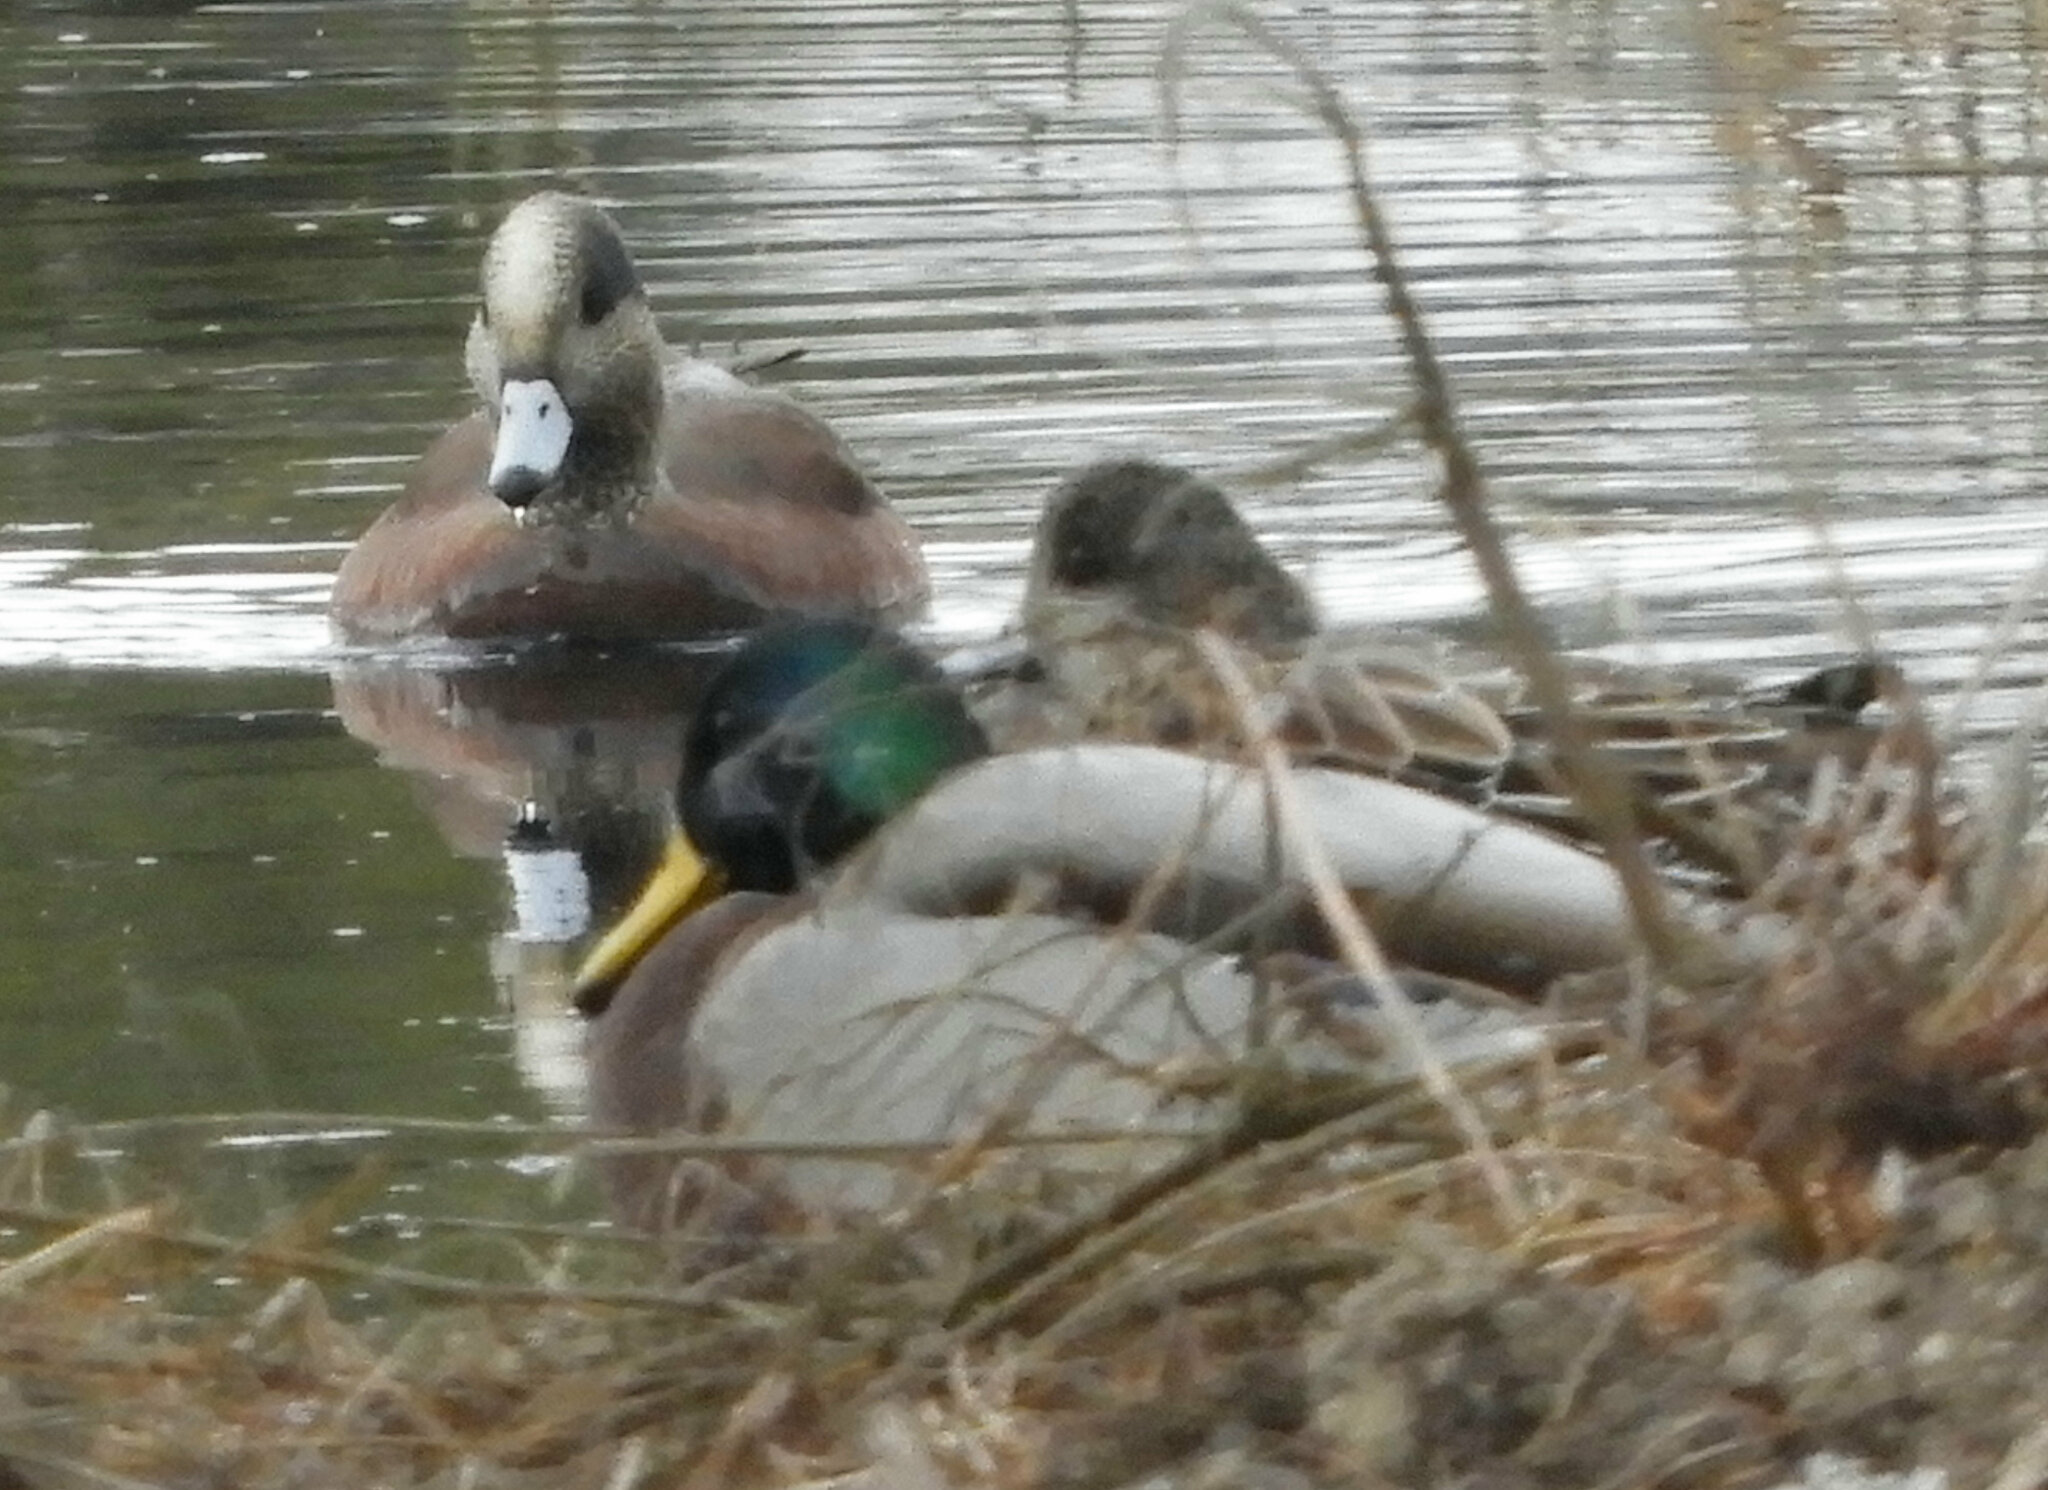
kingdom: Animalia
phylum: Chordata
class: Aves
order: Anseriformes
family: Anatidae
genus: Anas
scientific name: Anas platyrhynchos
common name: Mallard
